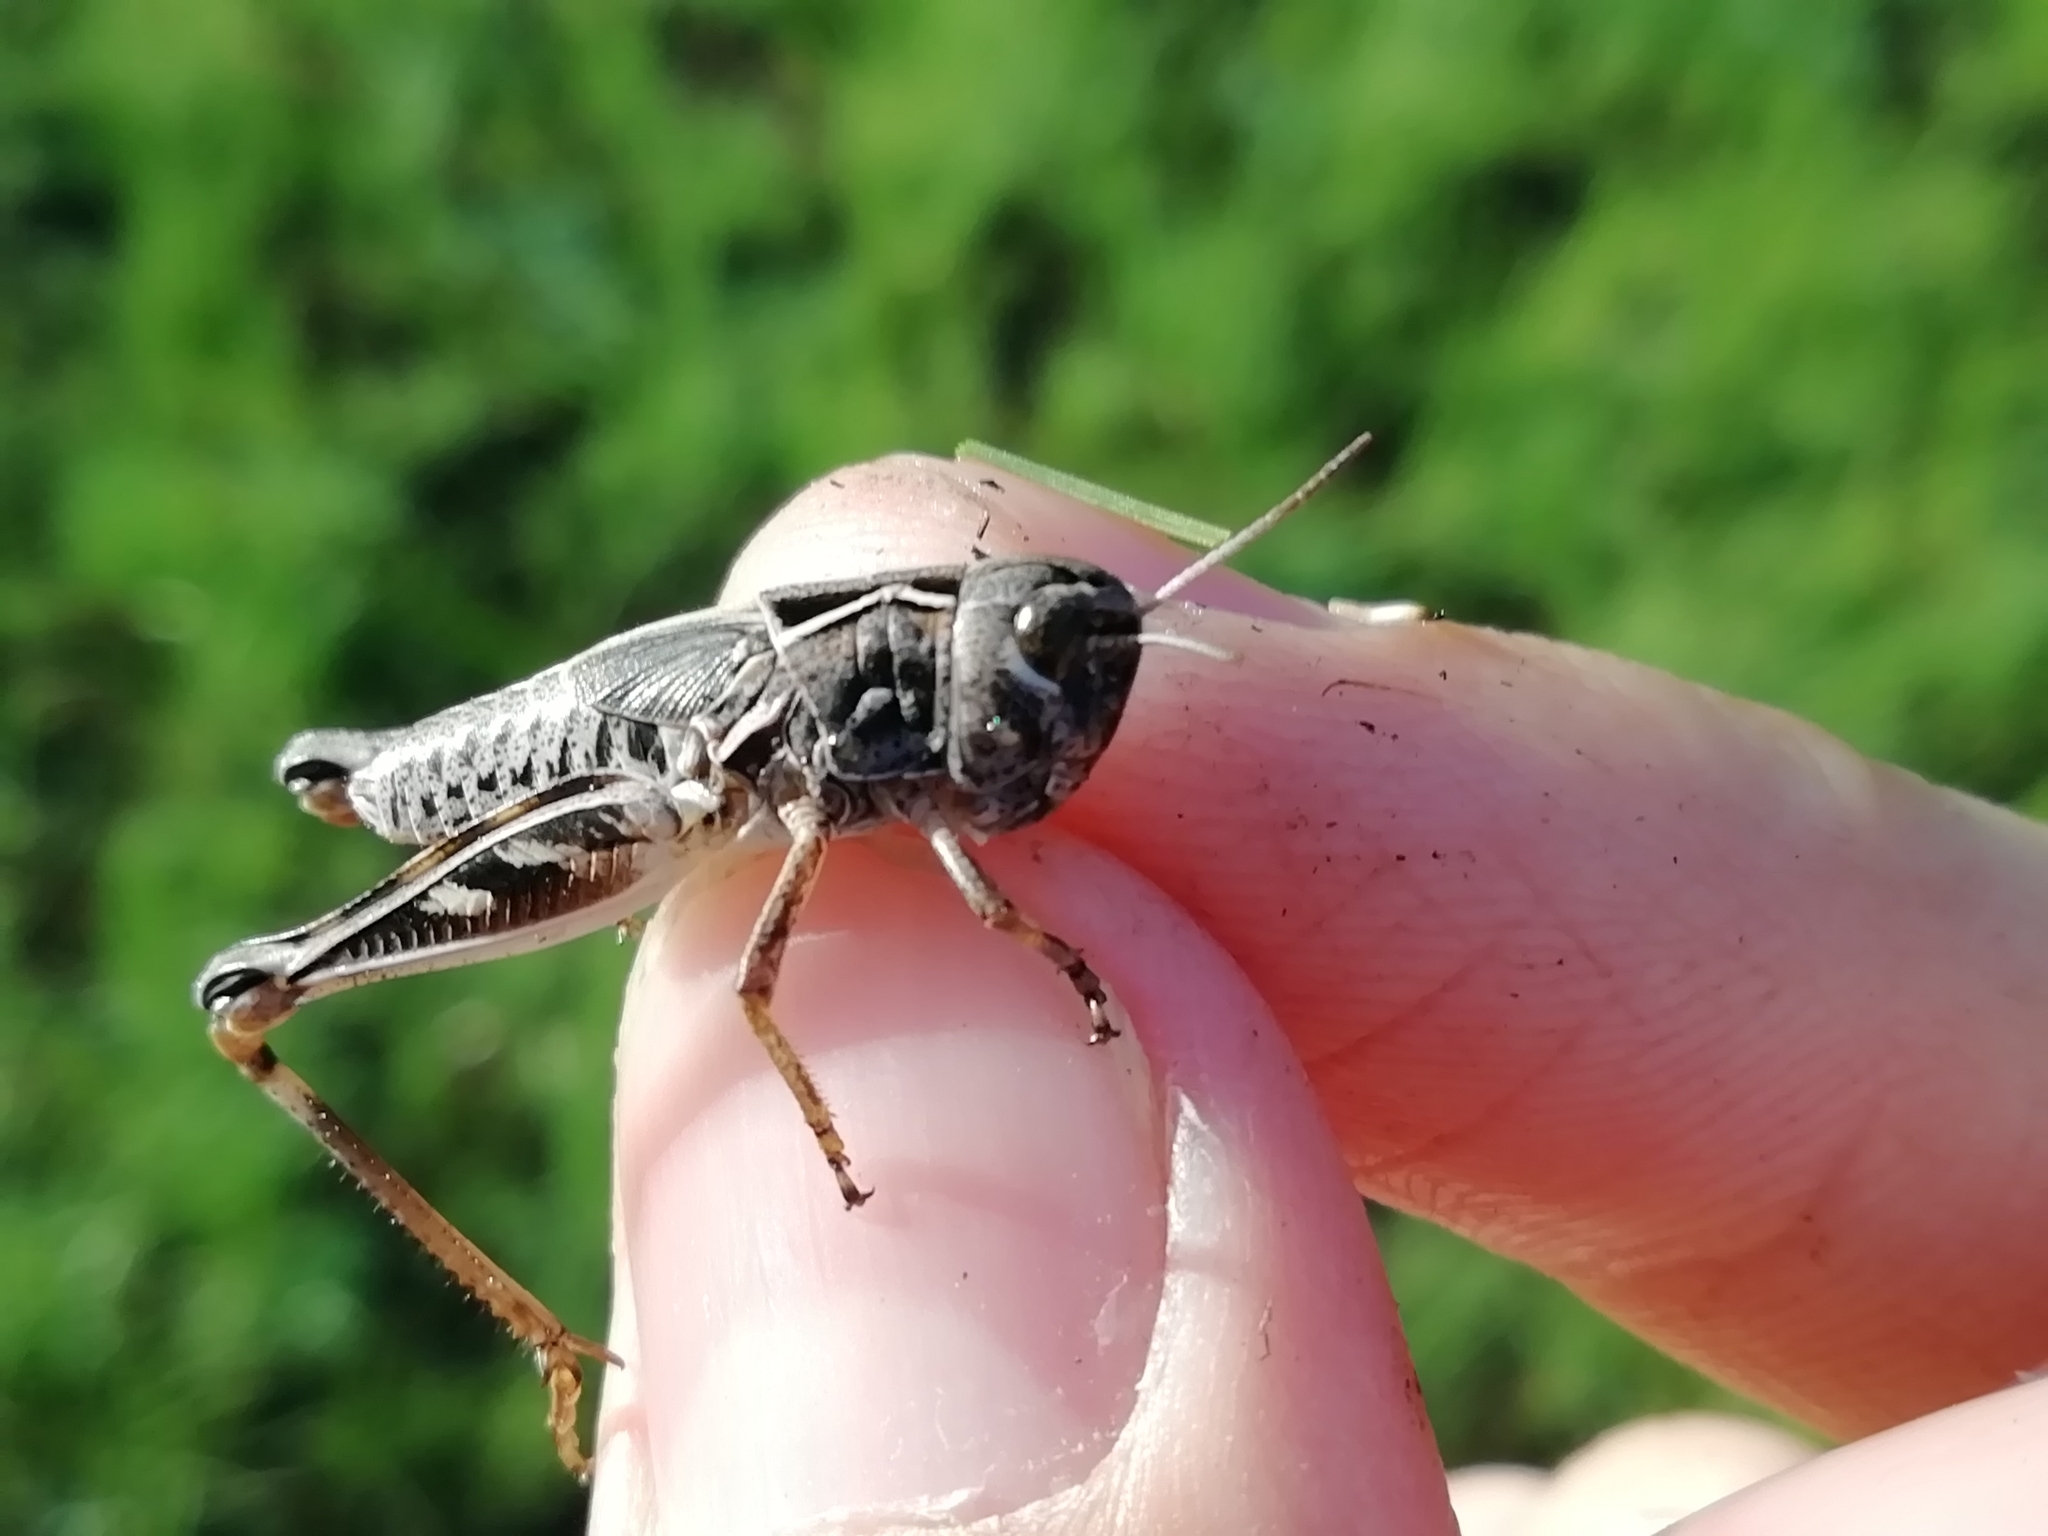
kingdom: Animalia
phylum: Arthropoda
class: Insecta
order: Orthoptera
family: Acrididae
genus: Arcyptera
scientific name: Arcyptera microptera
